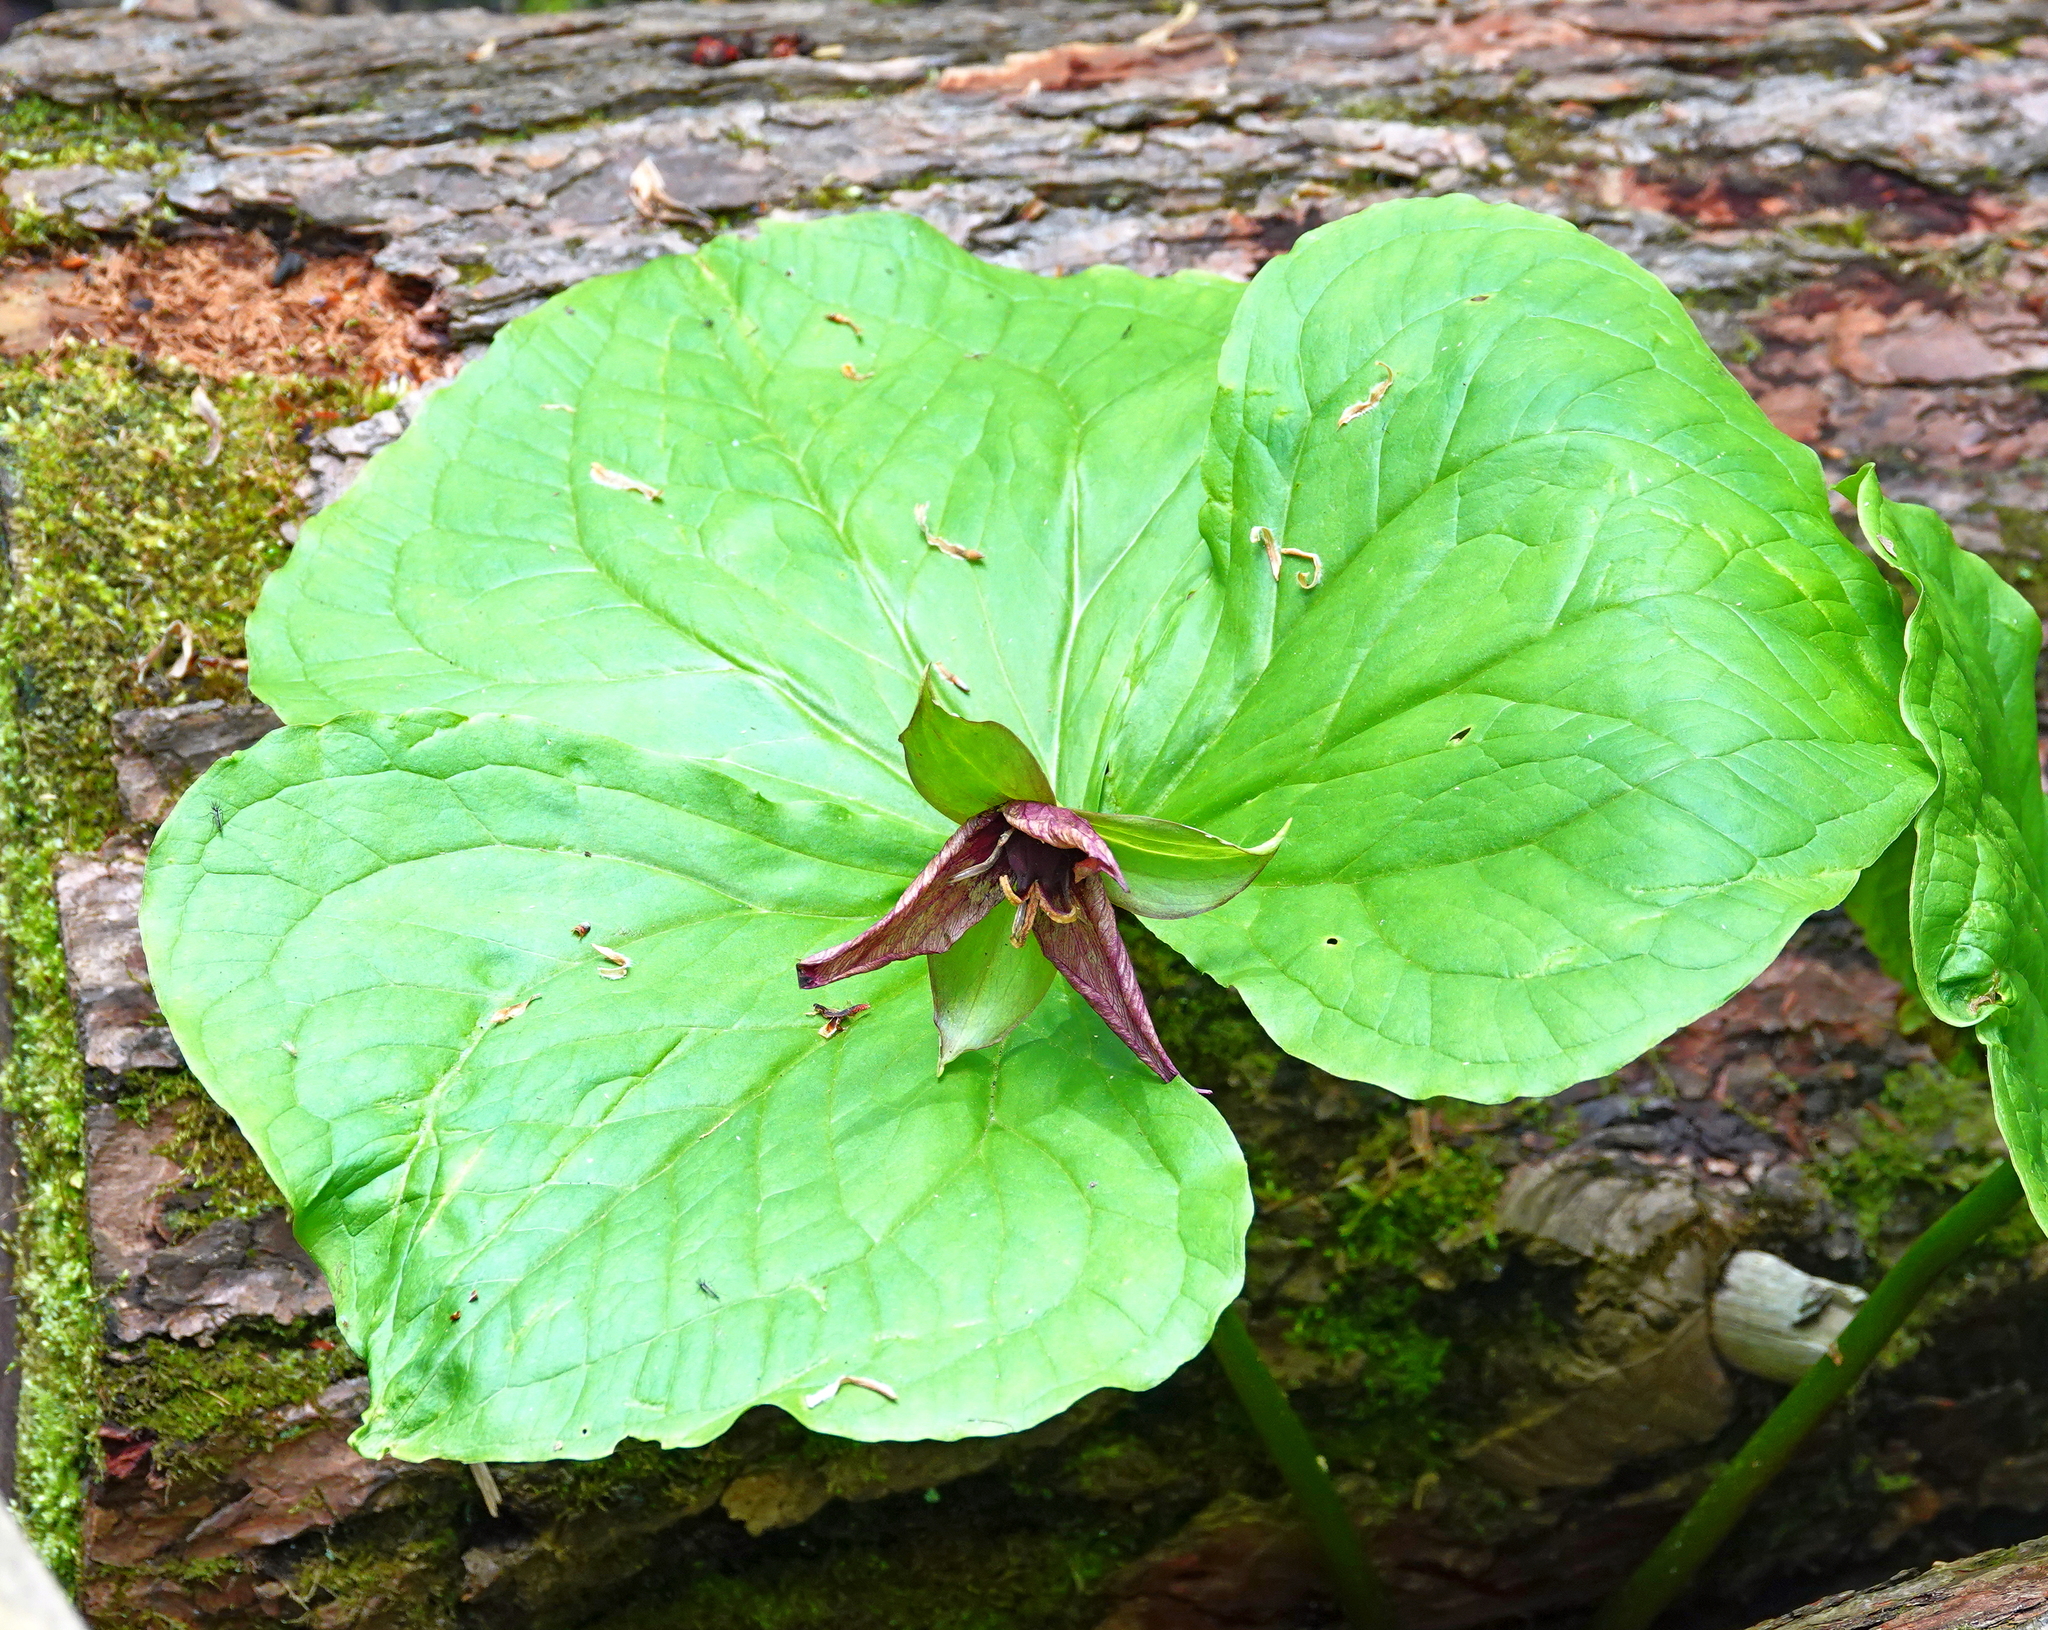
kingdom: Plantae
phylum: Tracheophyta
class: Liliopsida
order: Liliales
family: Melanthiaceae
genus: Trillium
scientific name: Trillium erectum
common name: Purple trillium
